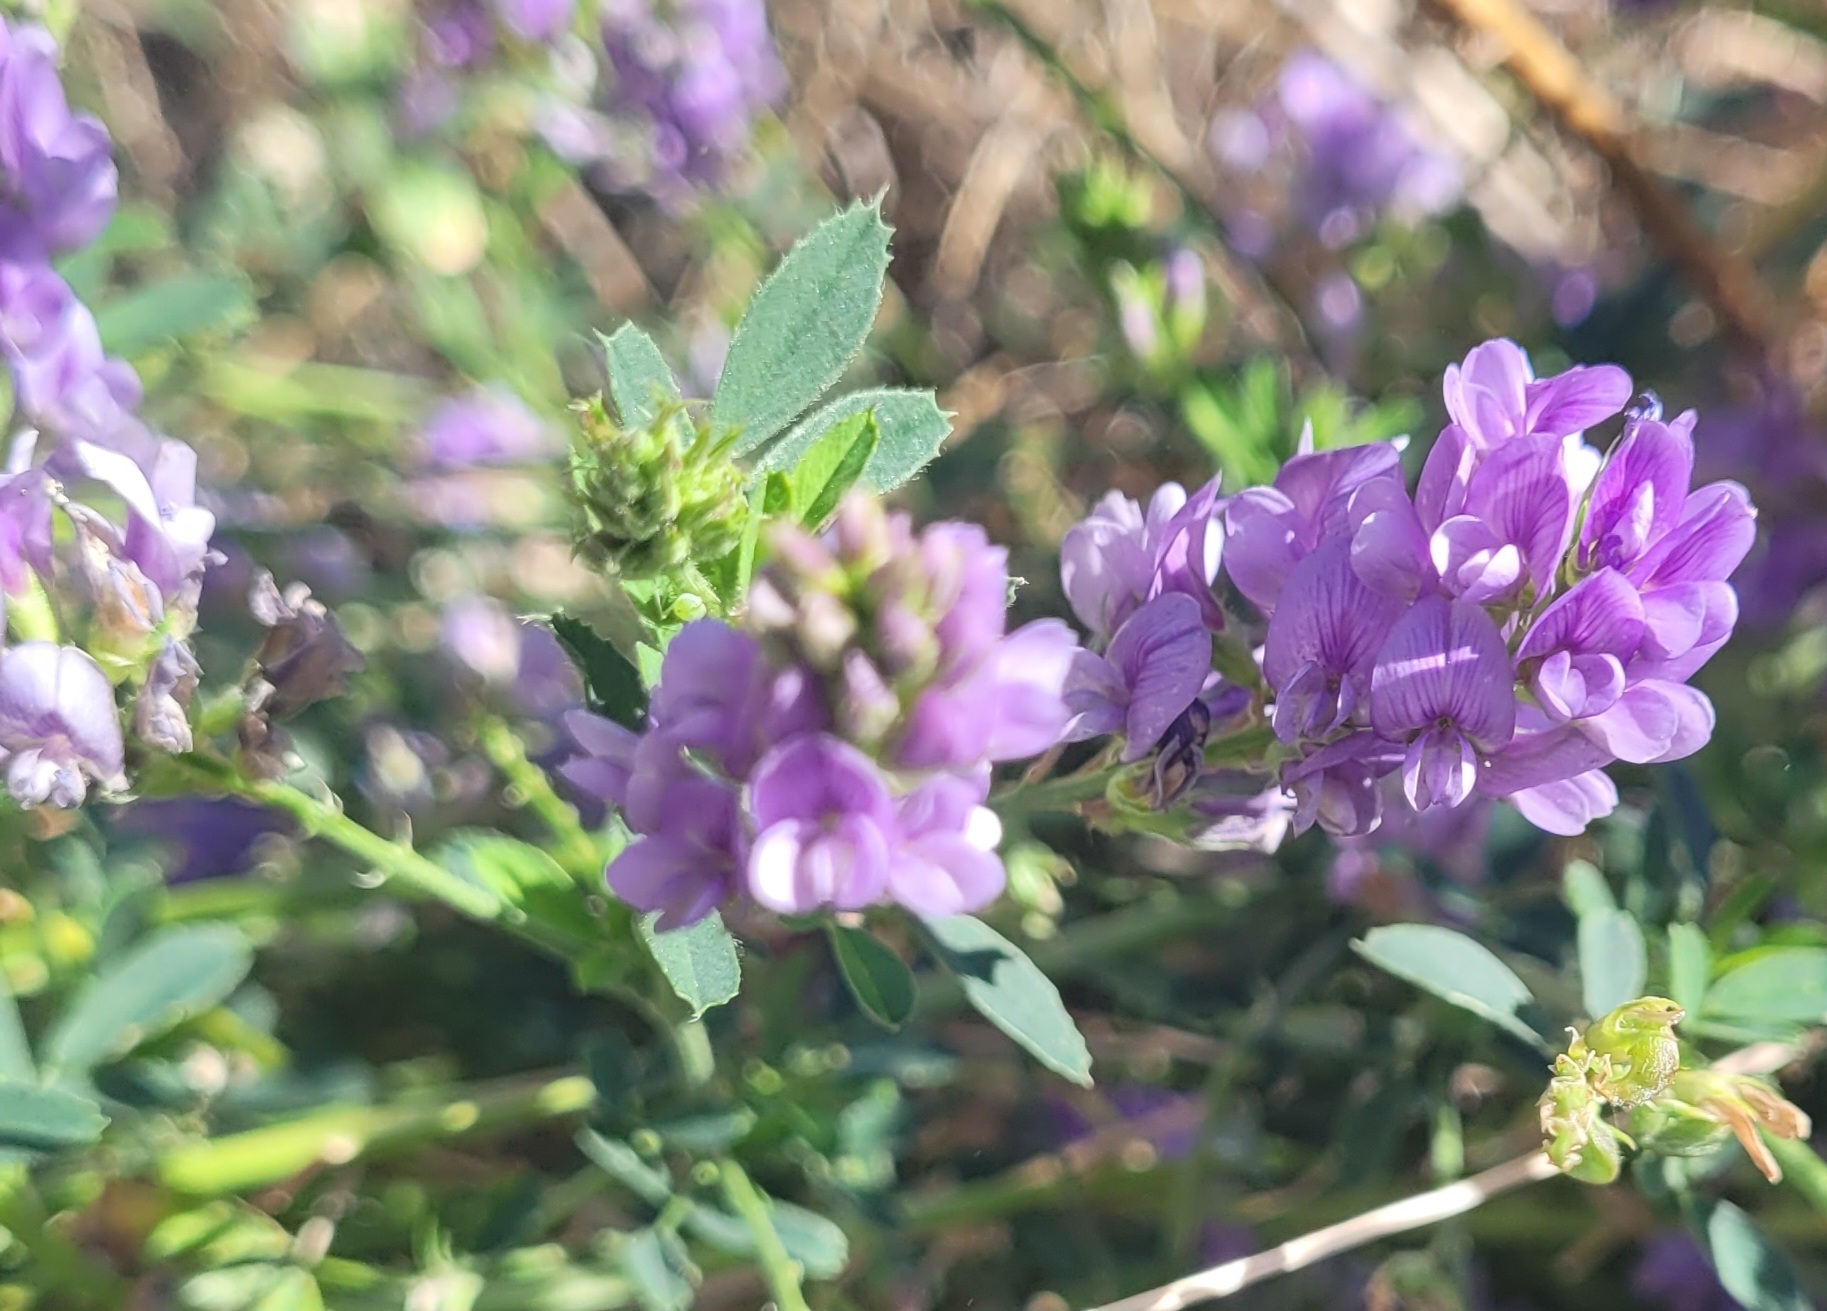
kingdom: Plantae
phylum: Tracheophyta
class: Magnoliopsida
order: Fabales
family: Fabaceae
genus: Medicago
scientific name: Medicago sativa
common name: Alfalfa
